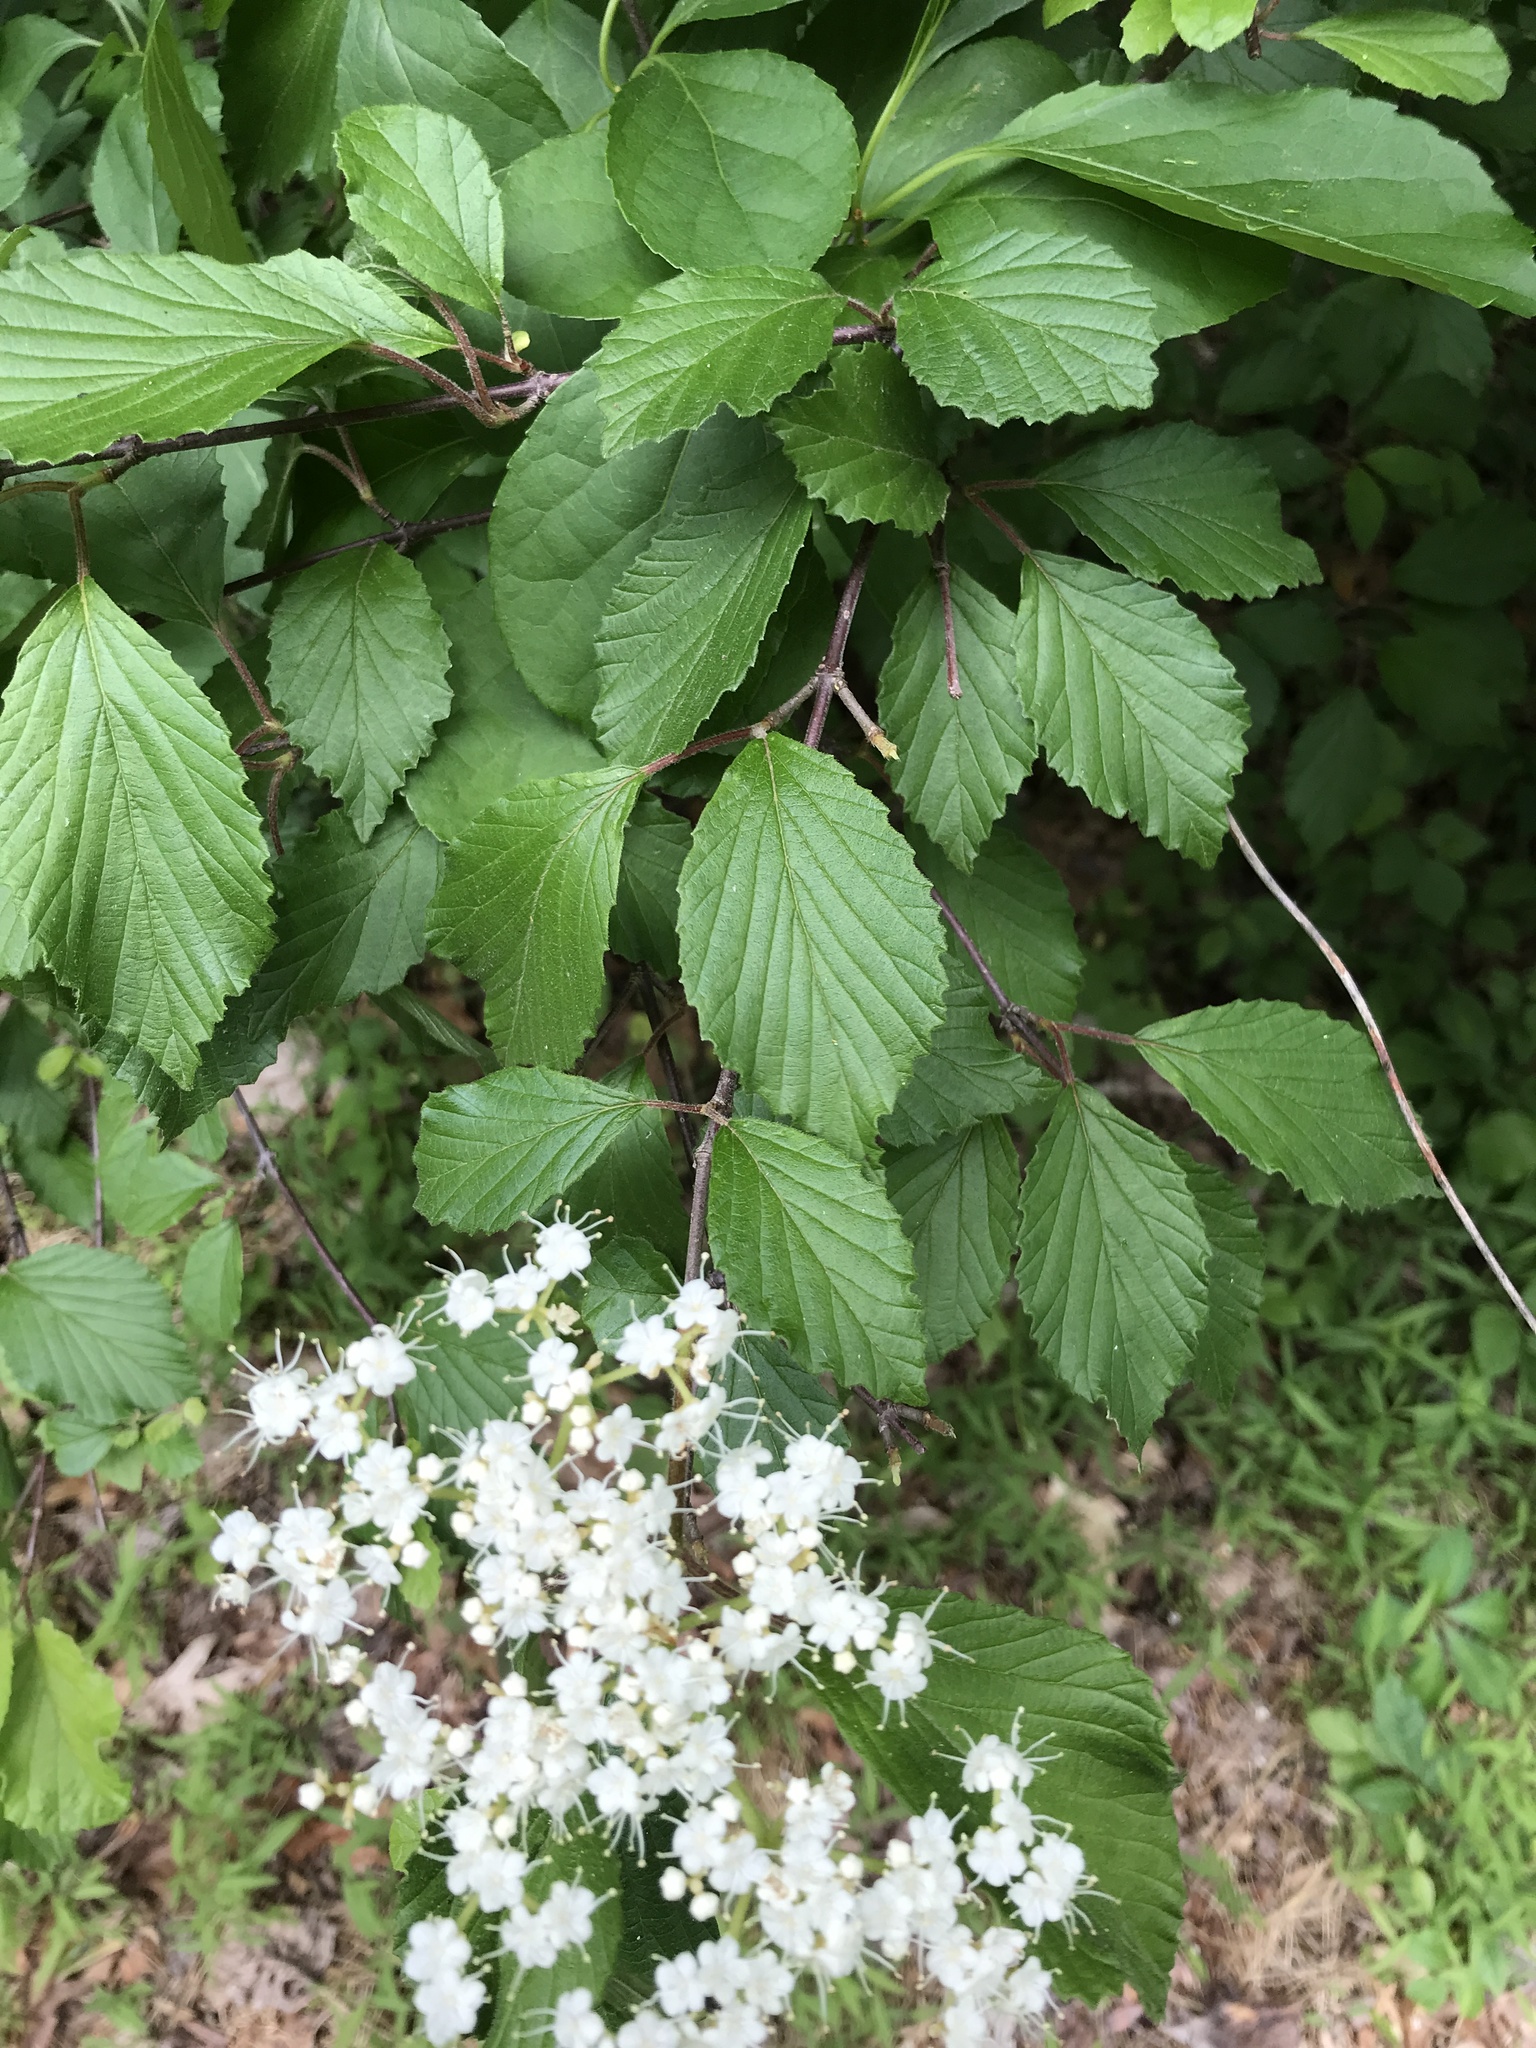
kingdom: Plantae
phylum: Tracheophyta
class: Magnoliopsida
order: Dipsacales
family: Viburnaceae
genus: Viburnum
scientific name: Viburnum dilatatum
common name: Linden arrowwood
